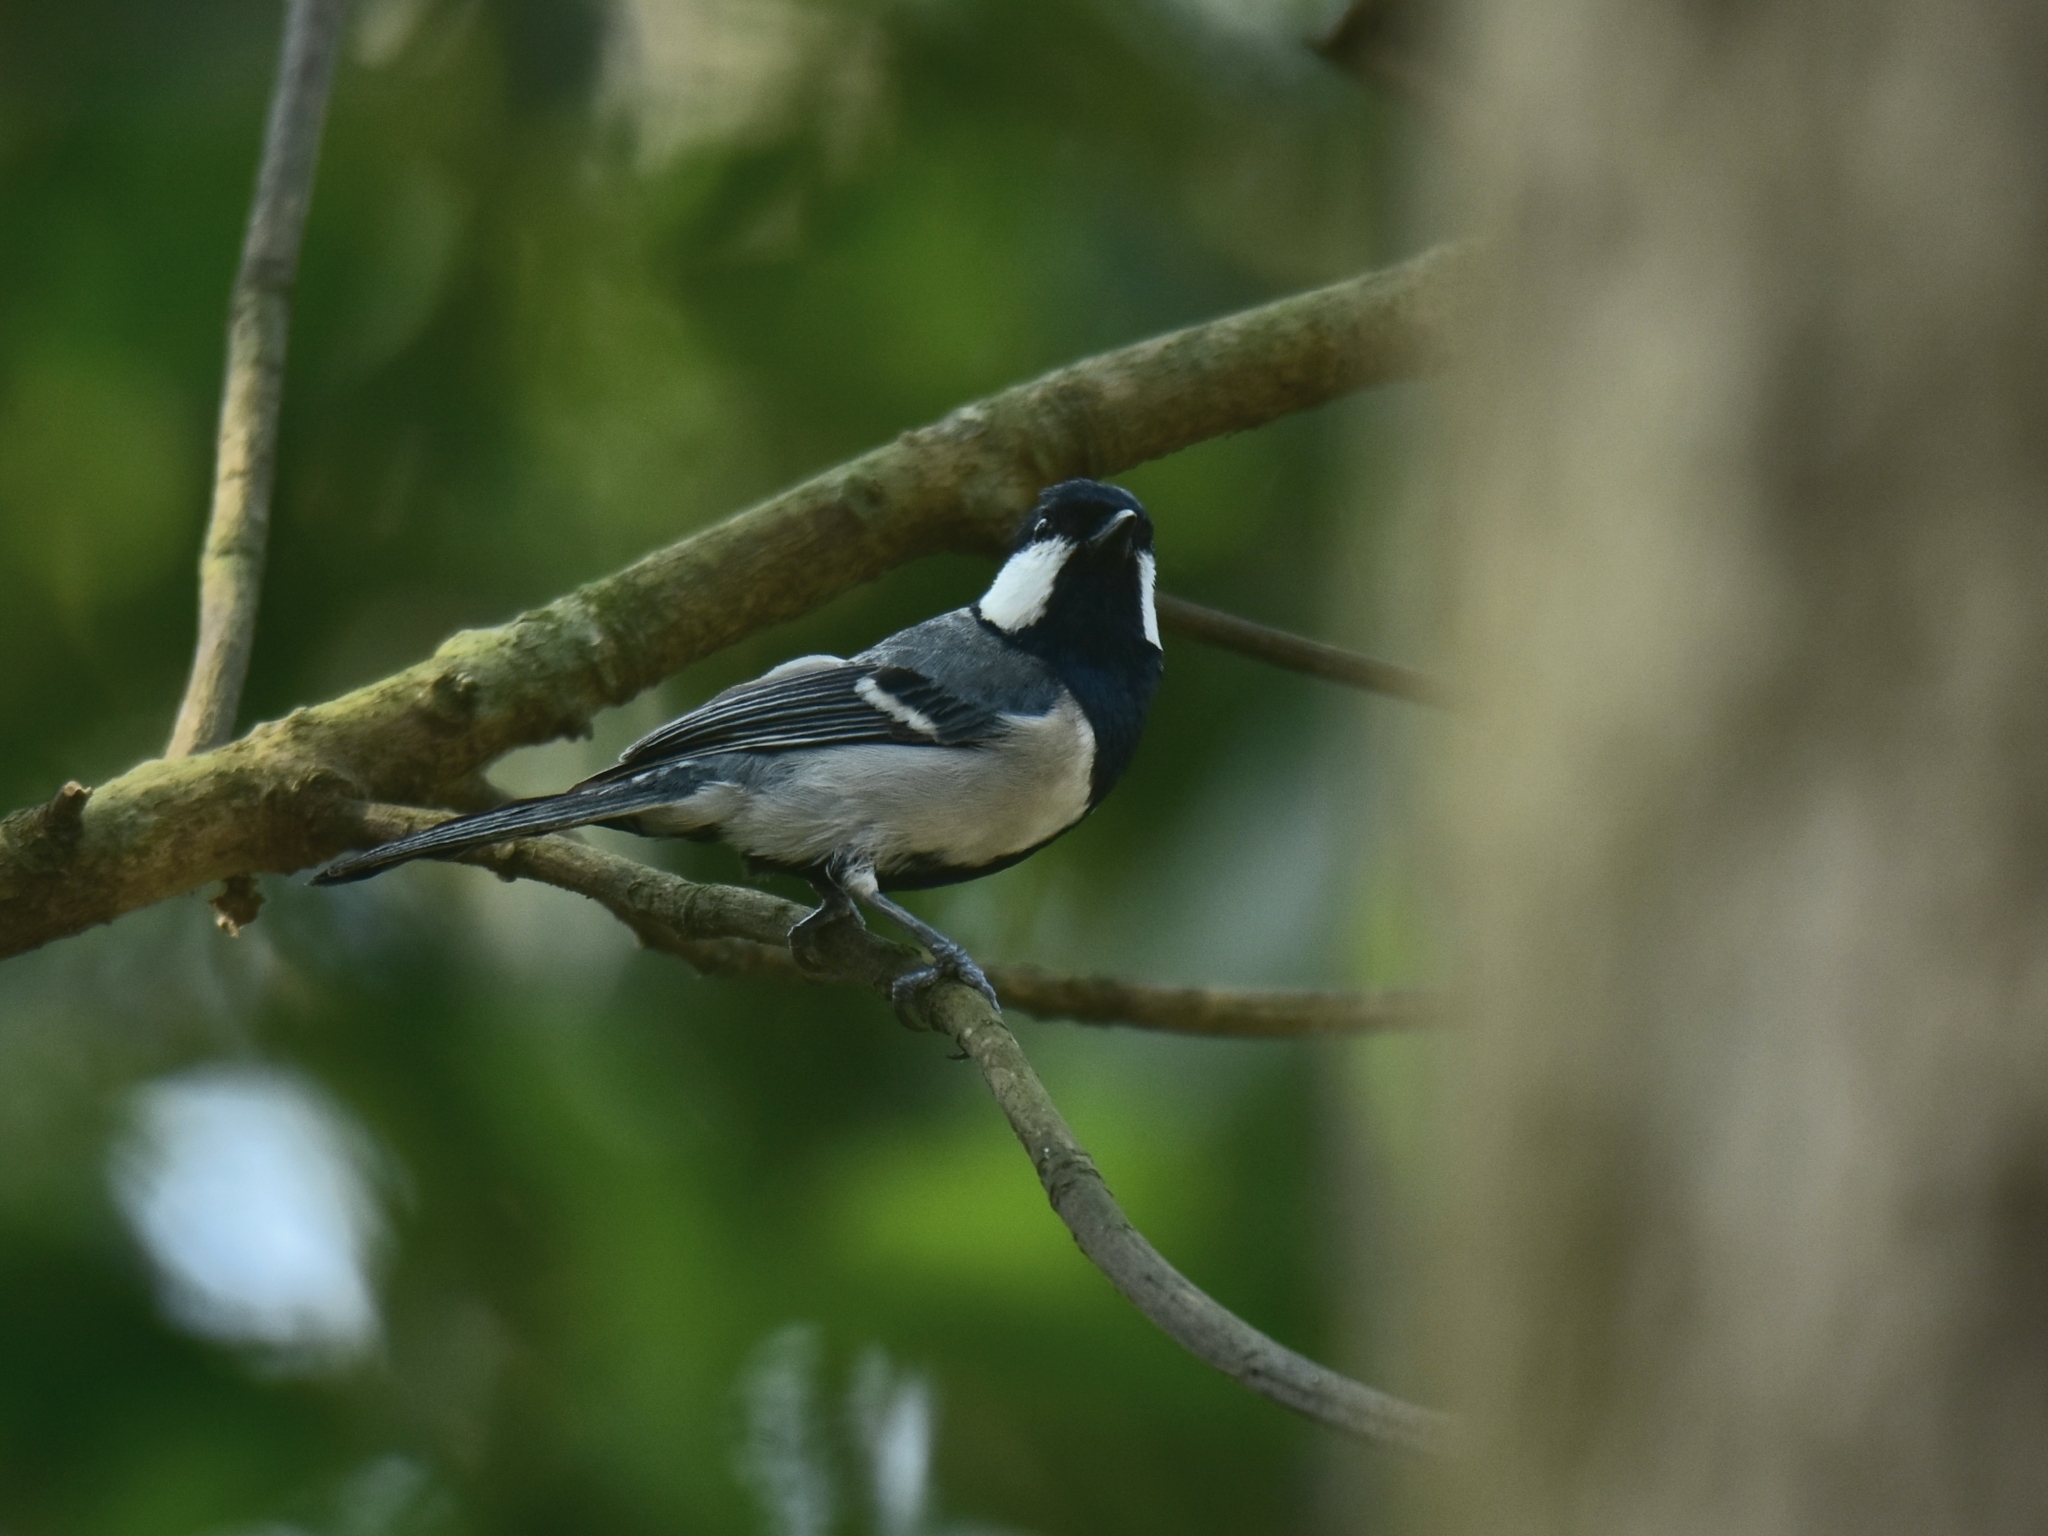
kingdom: Animalia
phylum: Chordata
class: Aves
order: Passeriformes
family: Paridae
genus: Parus
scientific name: Parus cinereus
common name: Cinereous tit
